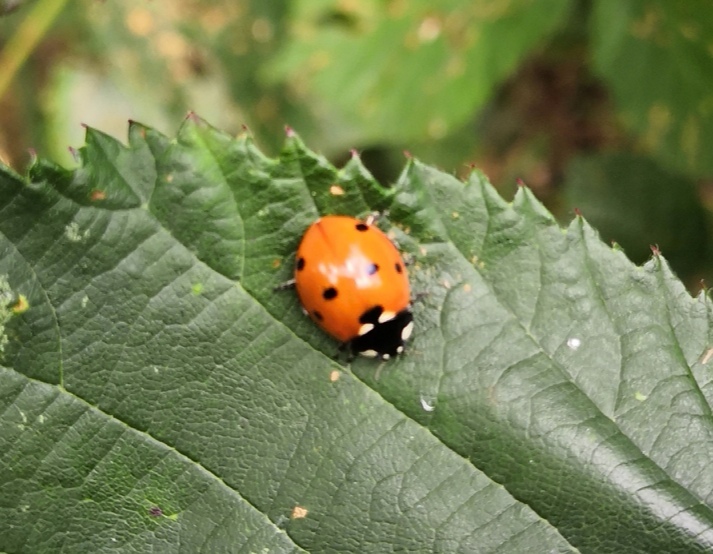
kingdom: Animalia
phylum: Arthropoda
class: Insecta
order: Coleoptera
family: Coccinellidae
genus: Coccinella
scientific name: Coccinella septempunctata
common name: Sevenspotted lady beetle
